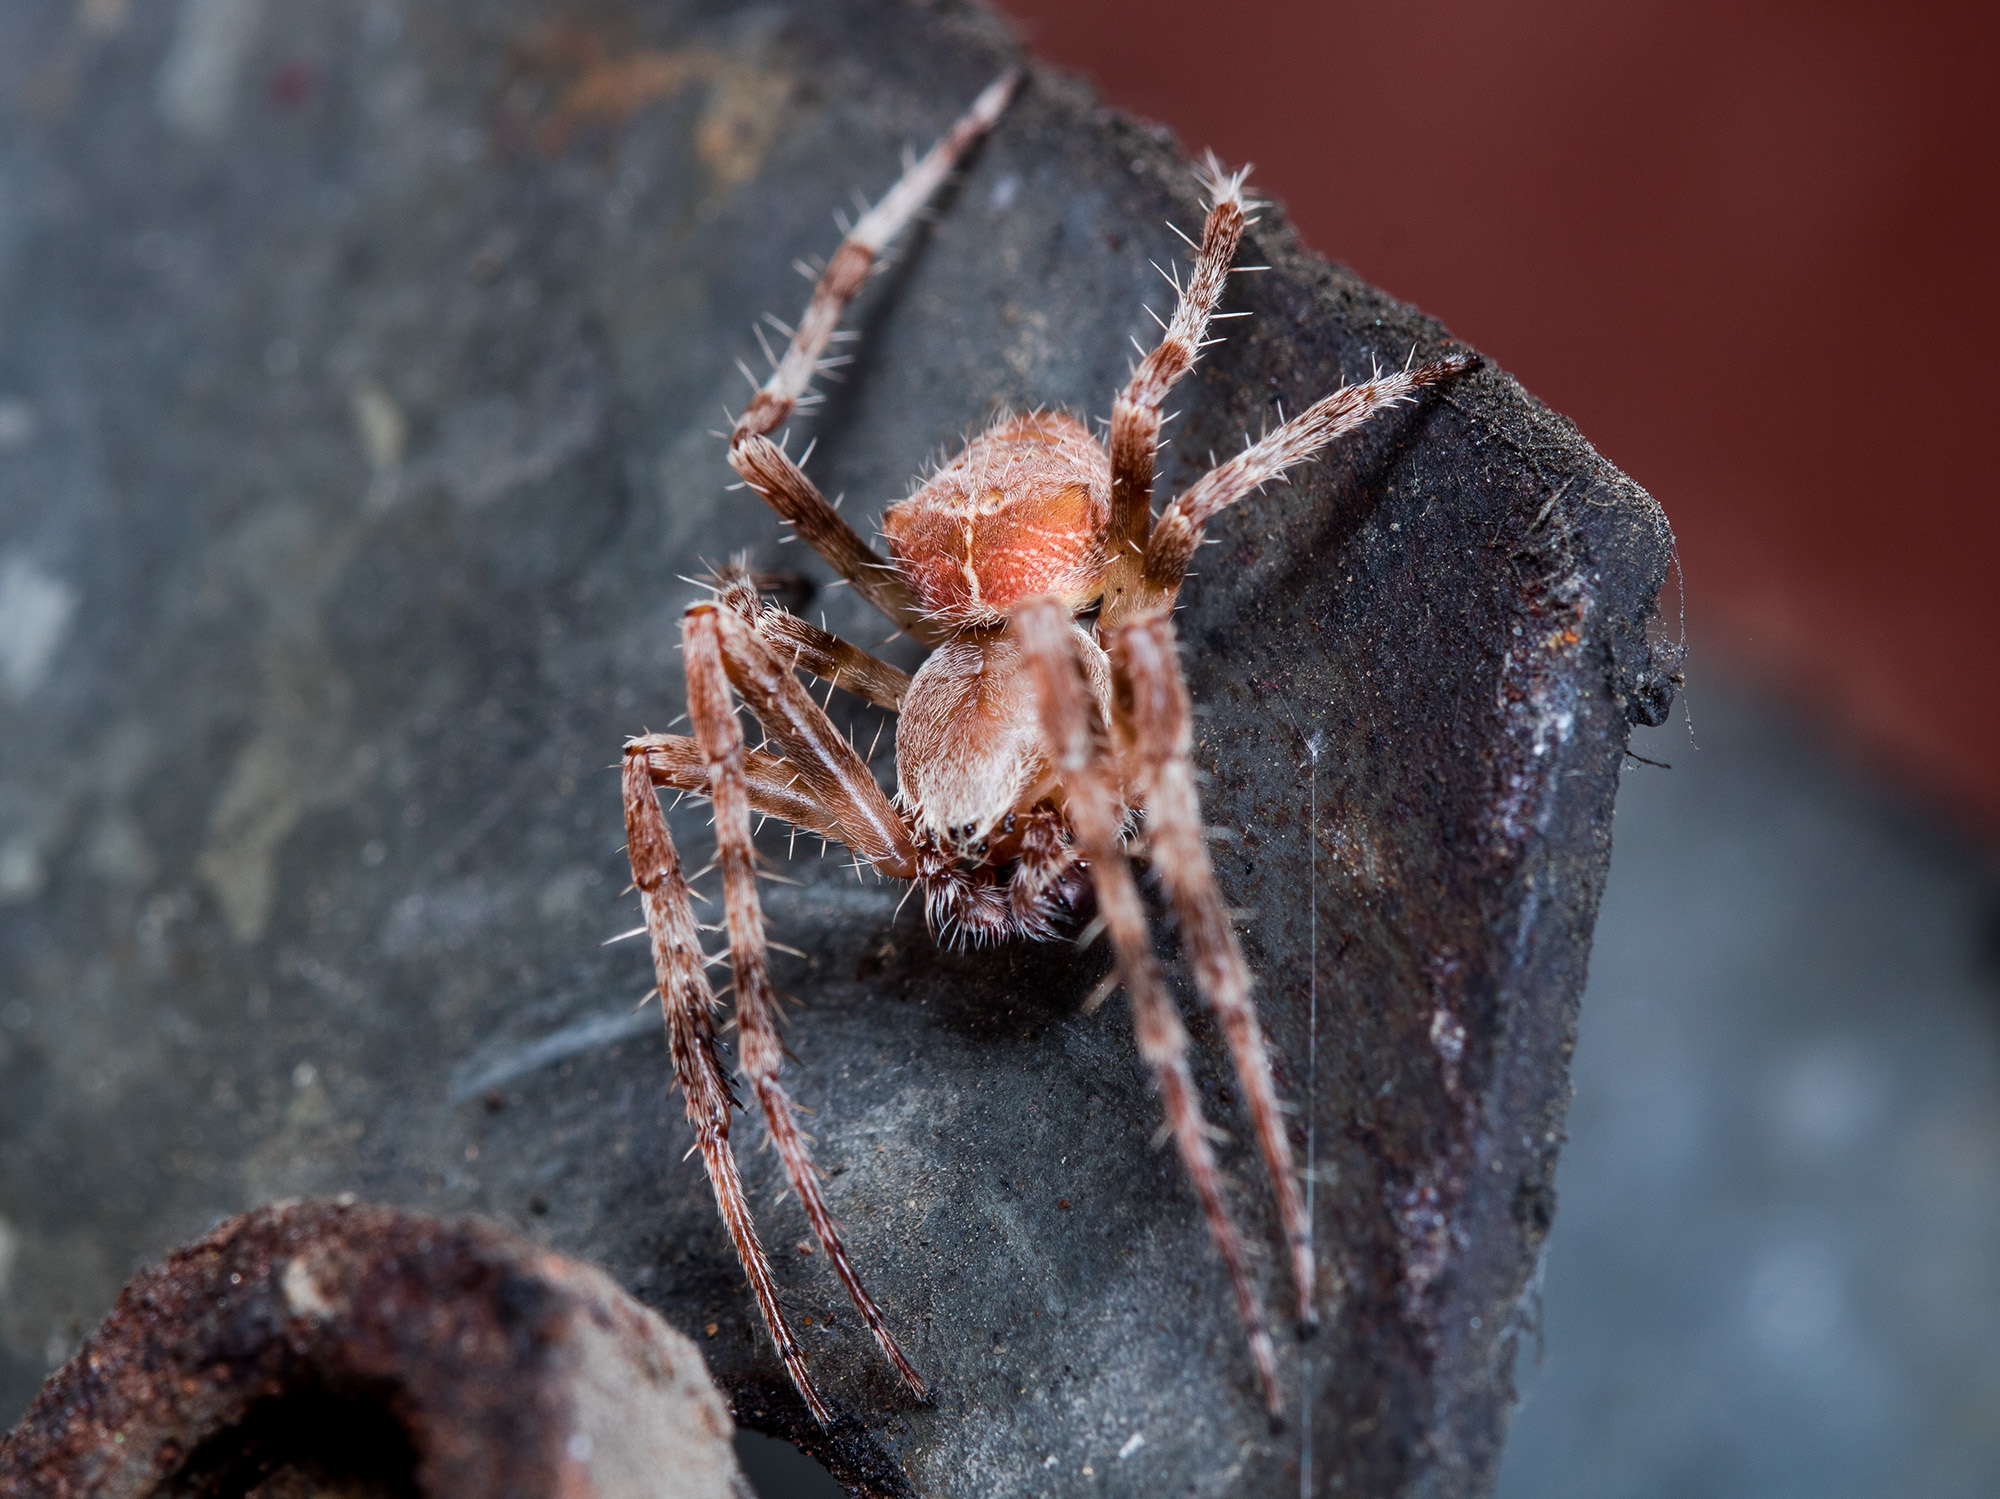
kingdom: Animalia
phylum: Arthropoda
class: Arachnida
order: Araneae
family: Araneidae
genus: Araneus
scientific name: Araneus tartaricus
